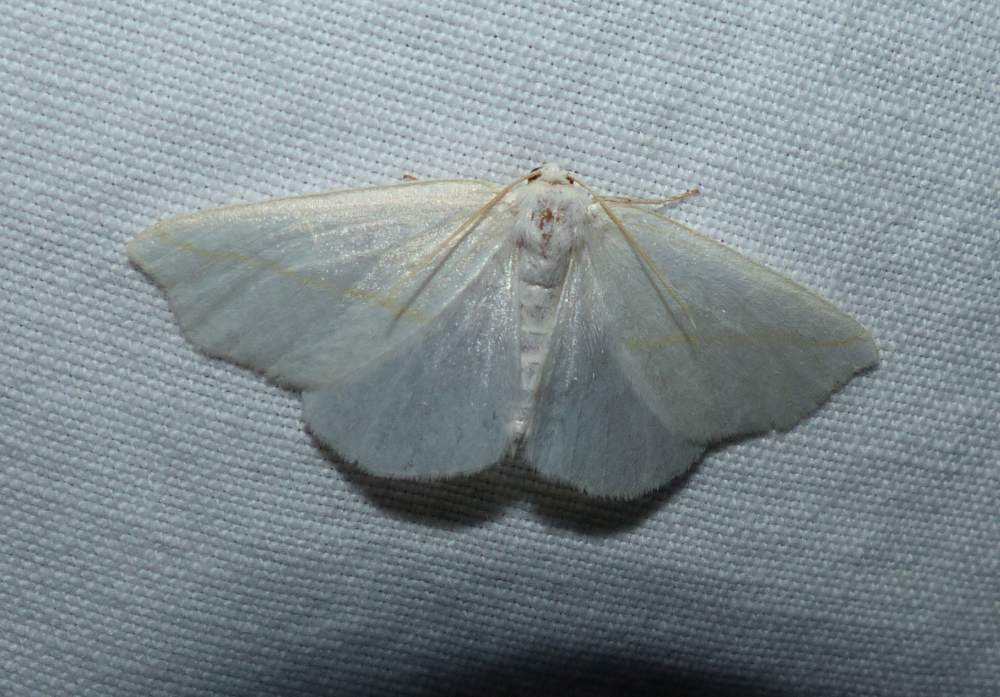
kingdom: Animalia
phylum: Arthropoda
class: Insecta
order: Lepidoptera
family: Geometridae
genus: Tetracis
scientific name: Tetracis cachexiata
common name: White slant-line
